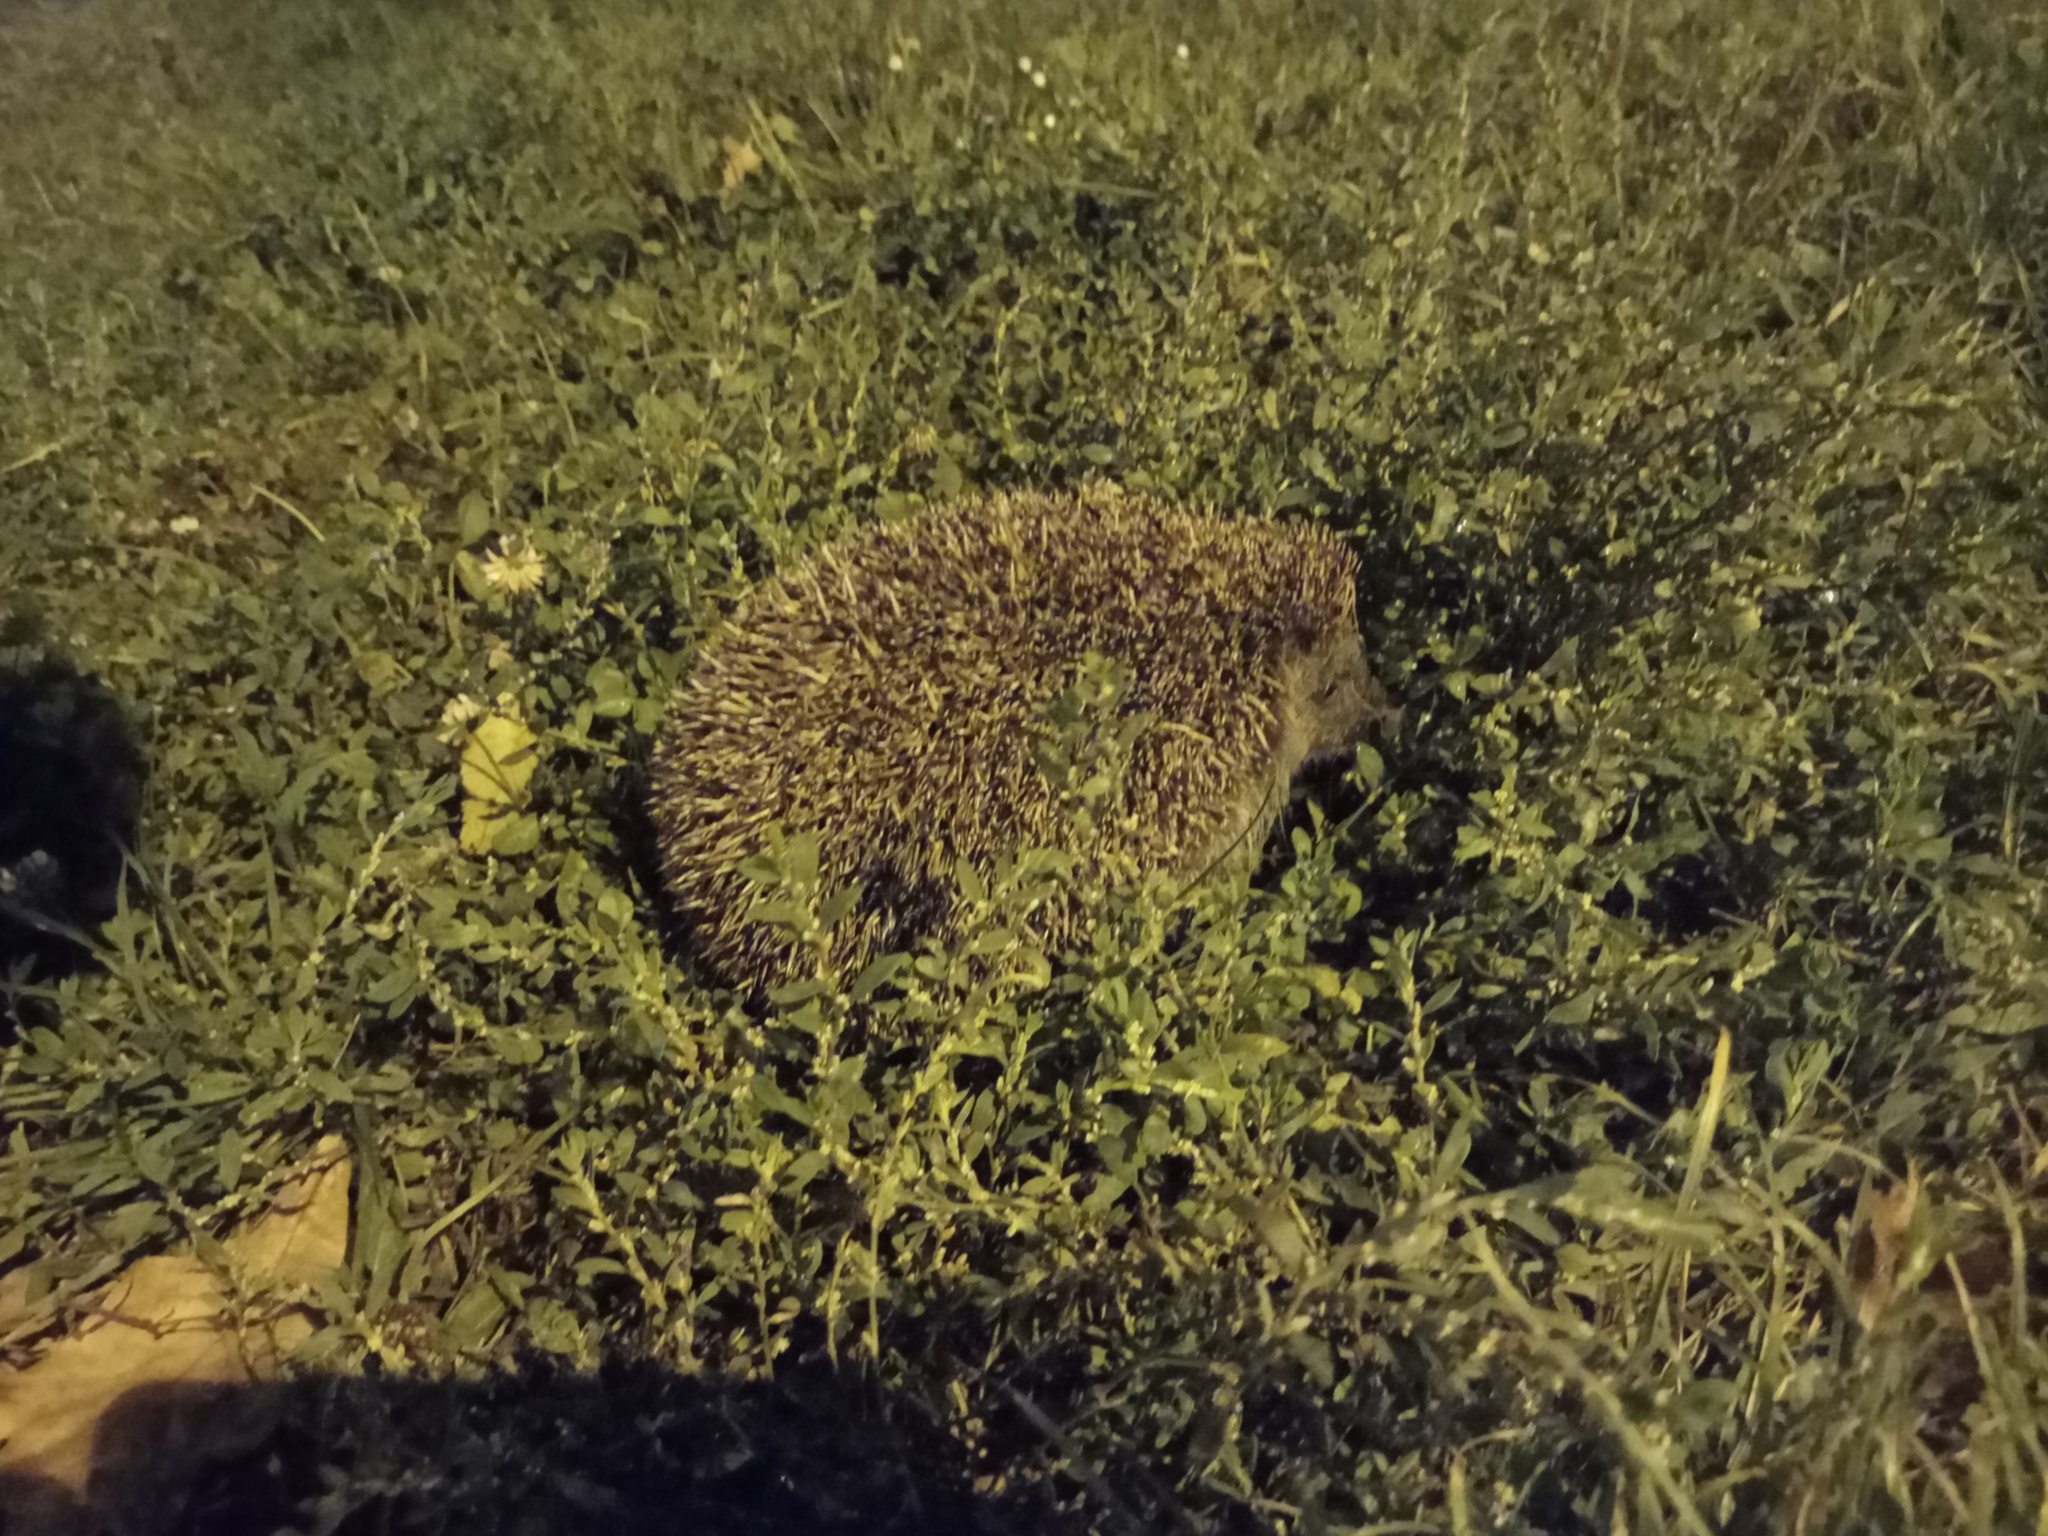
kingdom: Animalia
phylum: Chordata
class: Mammalia
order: Erinaceomorpha
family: Erinaceidae
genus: Erinaceus
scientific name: Erinaceus roumanicus
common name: Northern white-breasted hedgehog
